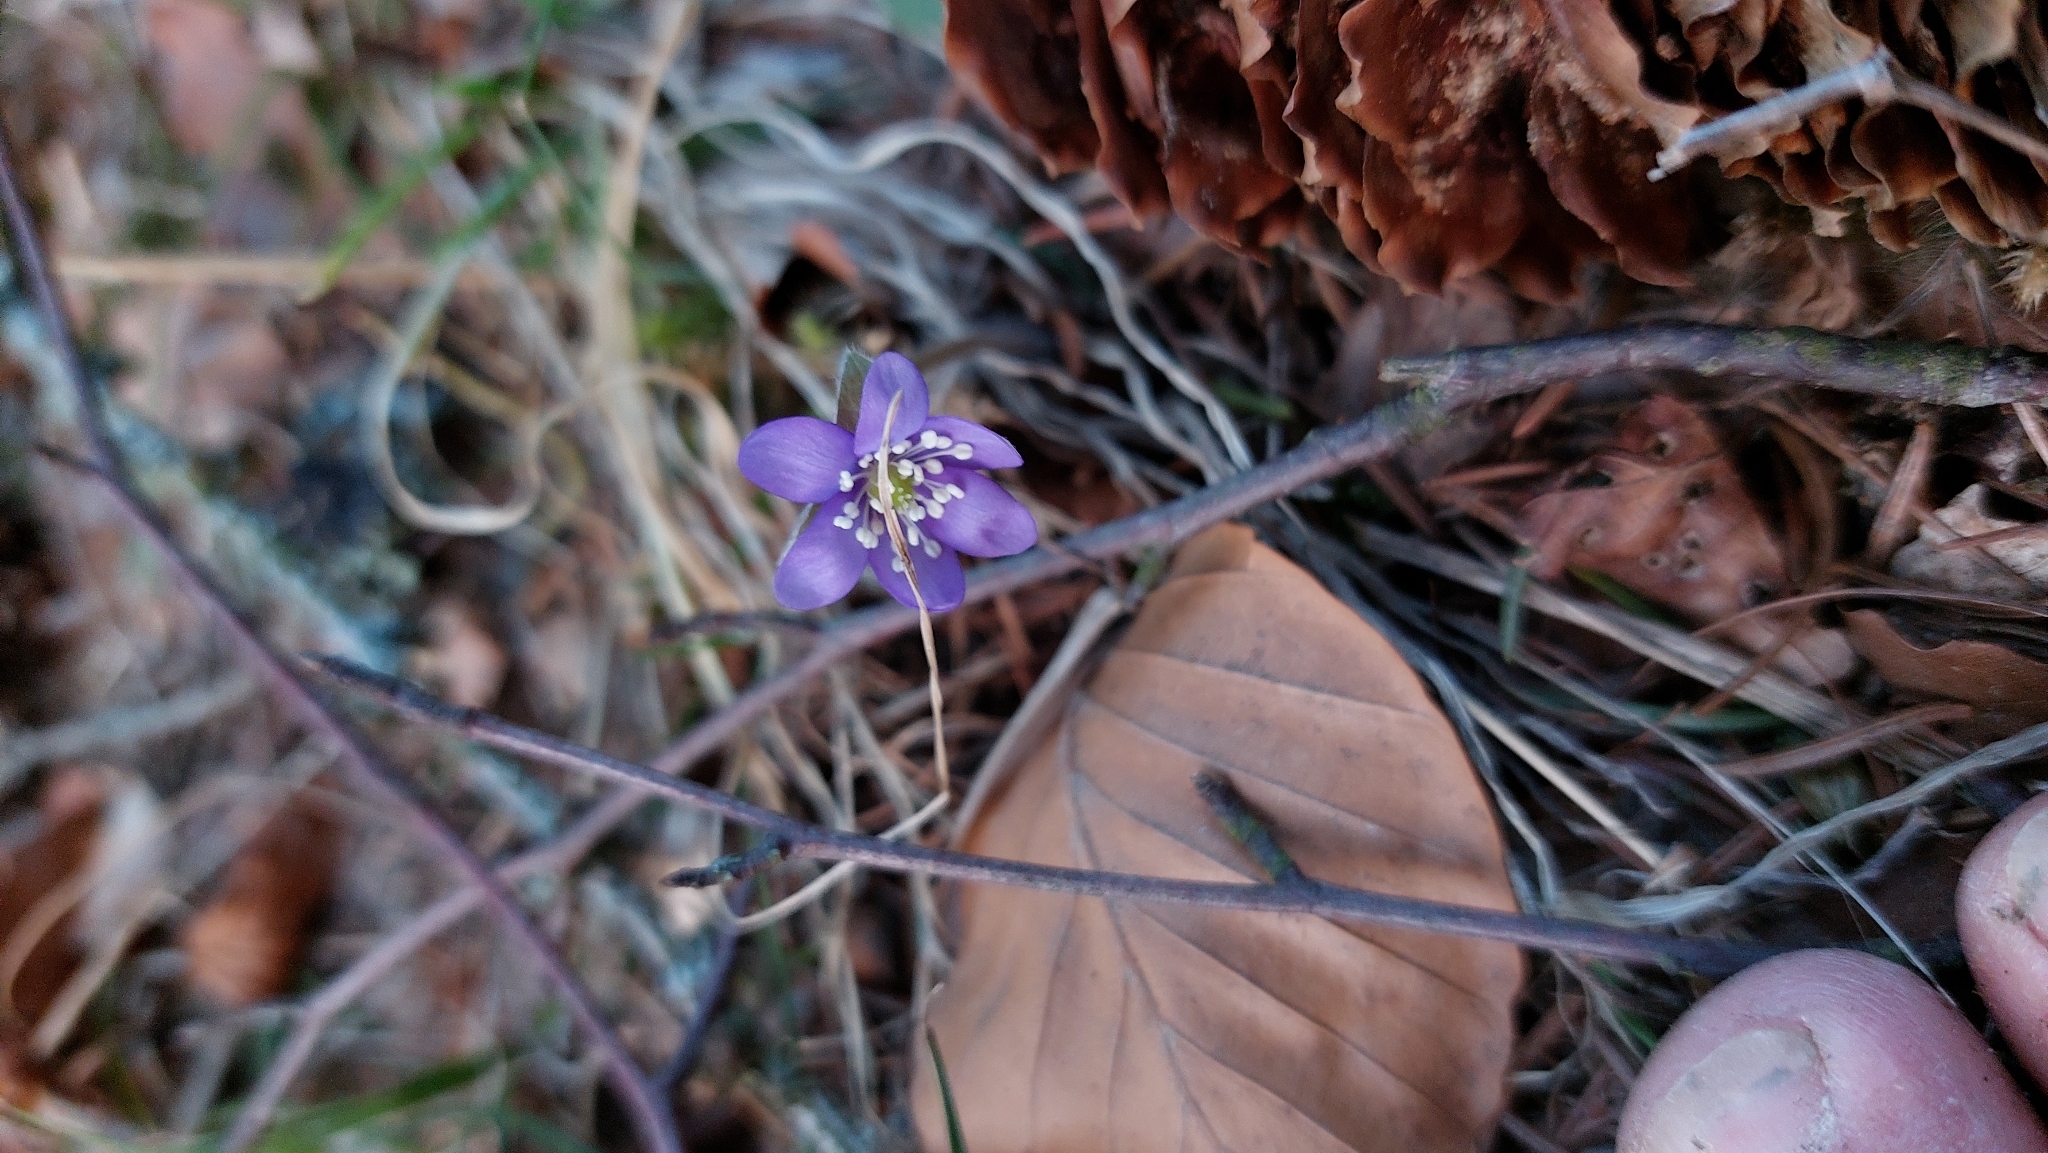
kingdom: Plantae
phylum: Tracheophyta
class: Magnoliopsida
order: Ranunculales
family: Ranunculaceae
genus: Hepatica
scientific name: Hepatica nobilis
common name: Liverleaf
